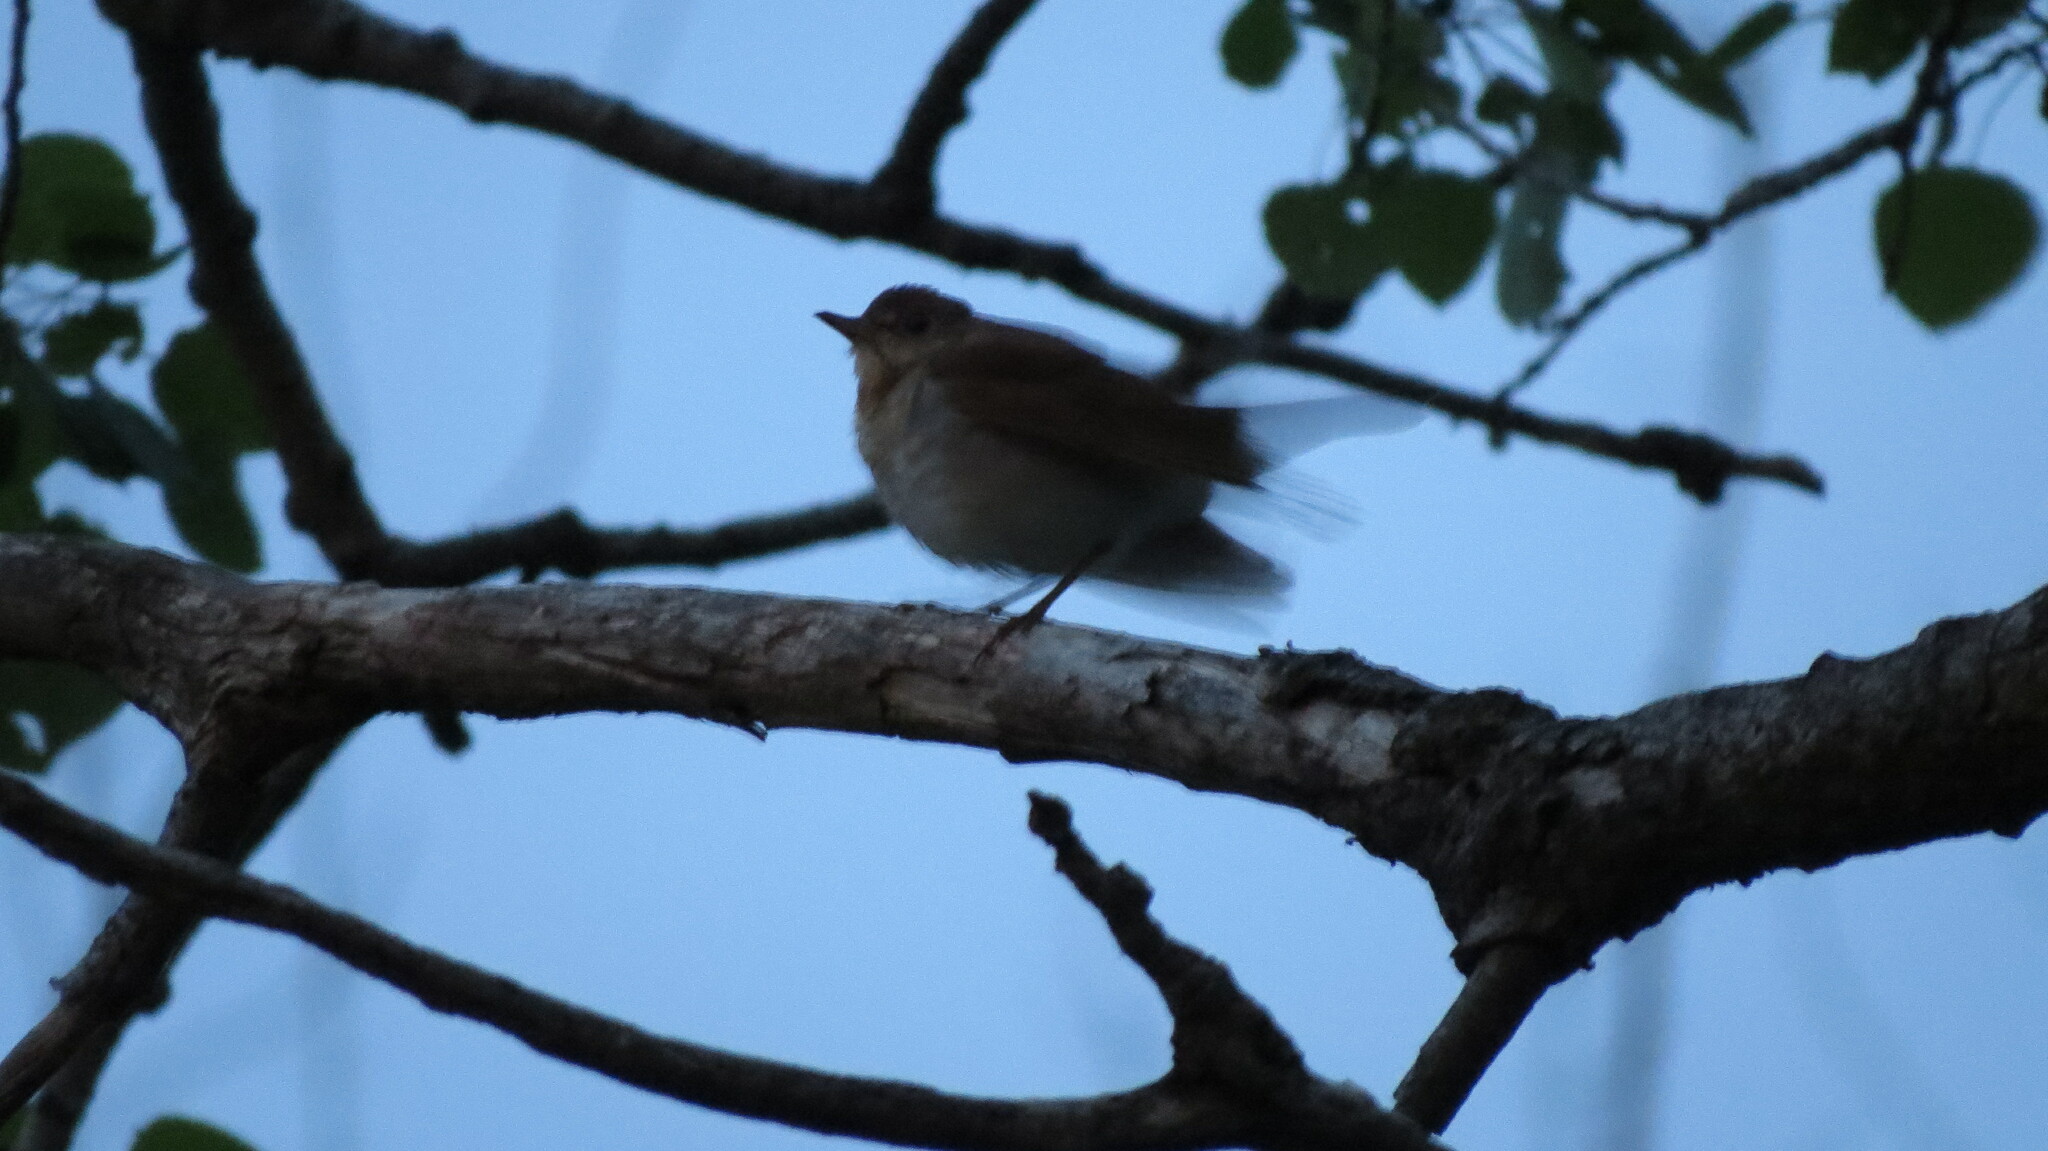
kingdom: Animalia
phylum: Chordata
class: Aves
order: Passeriformes
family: Turdidae
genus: Catharus
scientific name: Catharus fuscescens
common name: Veery
